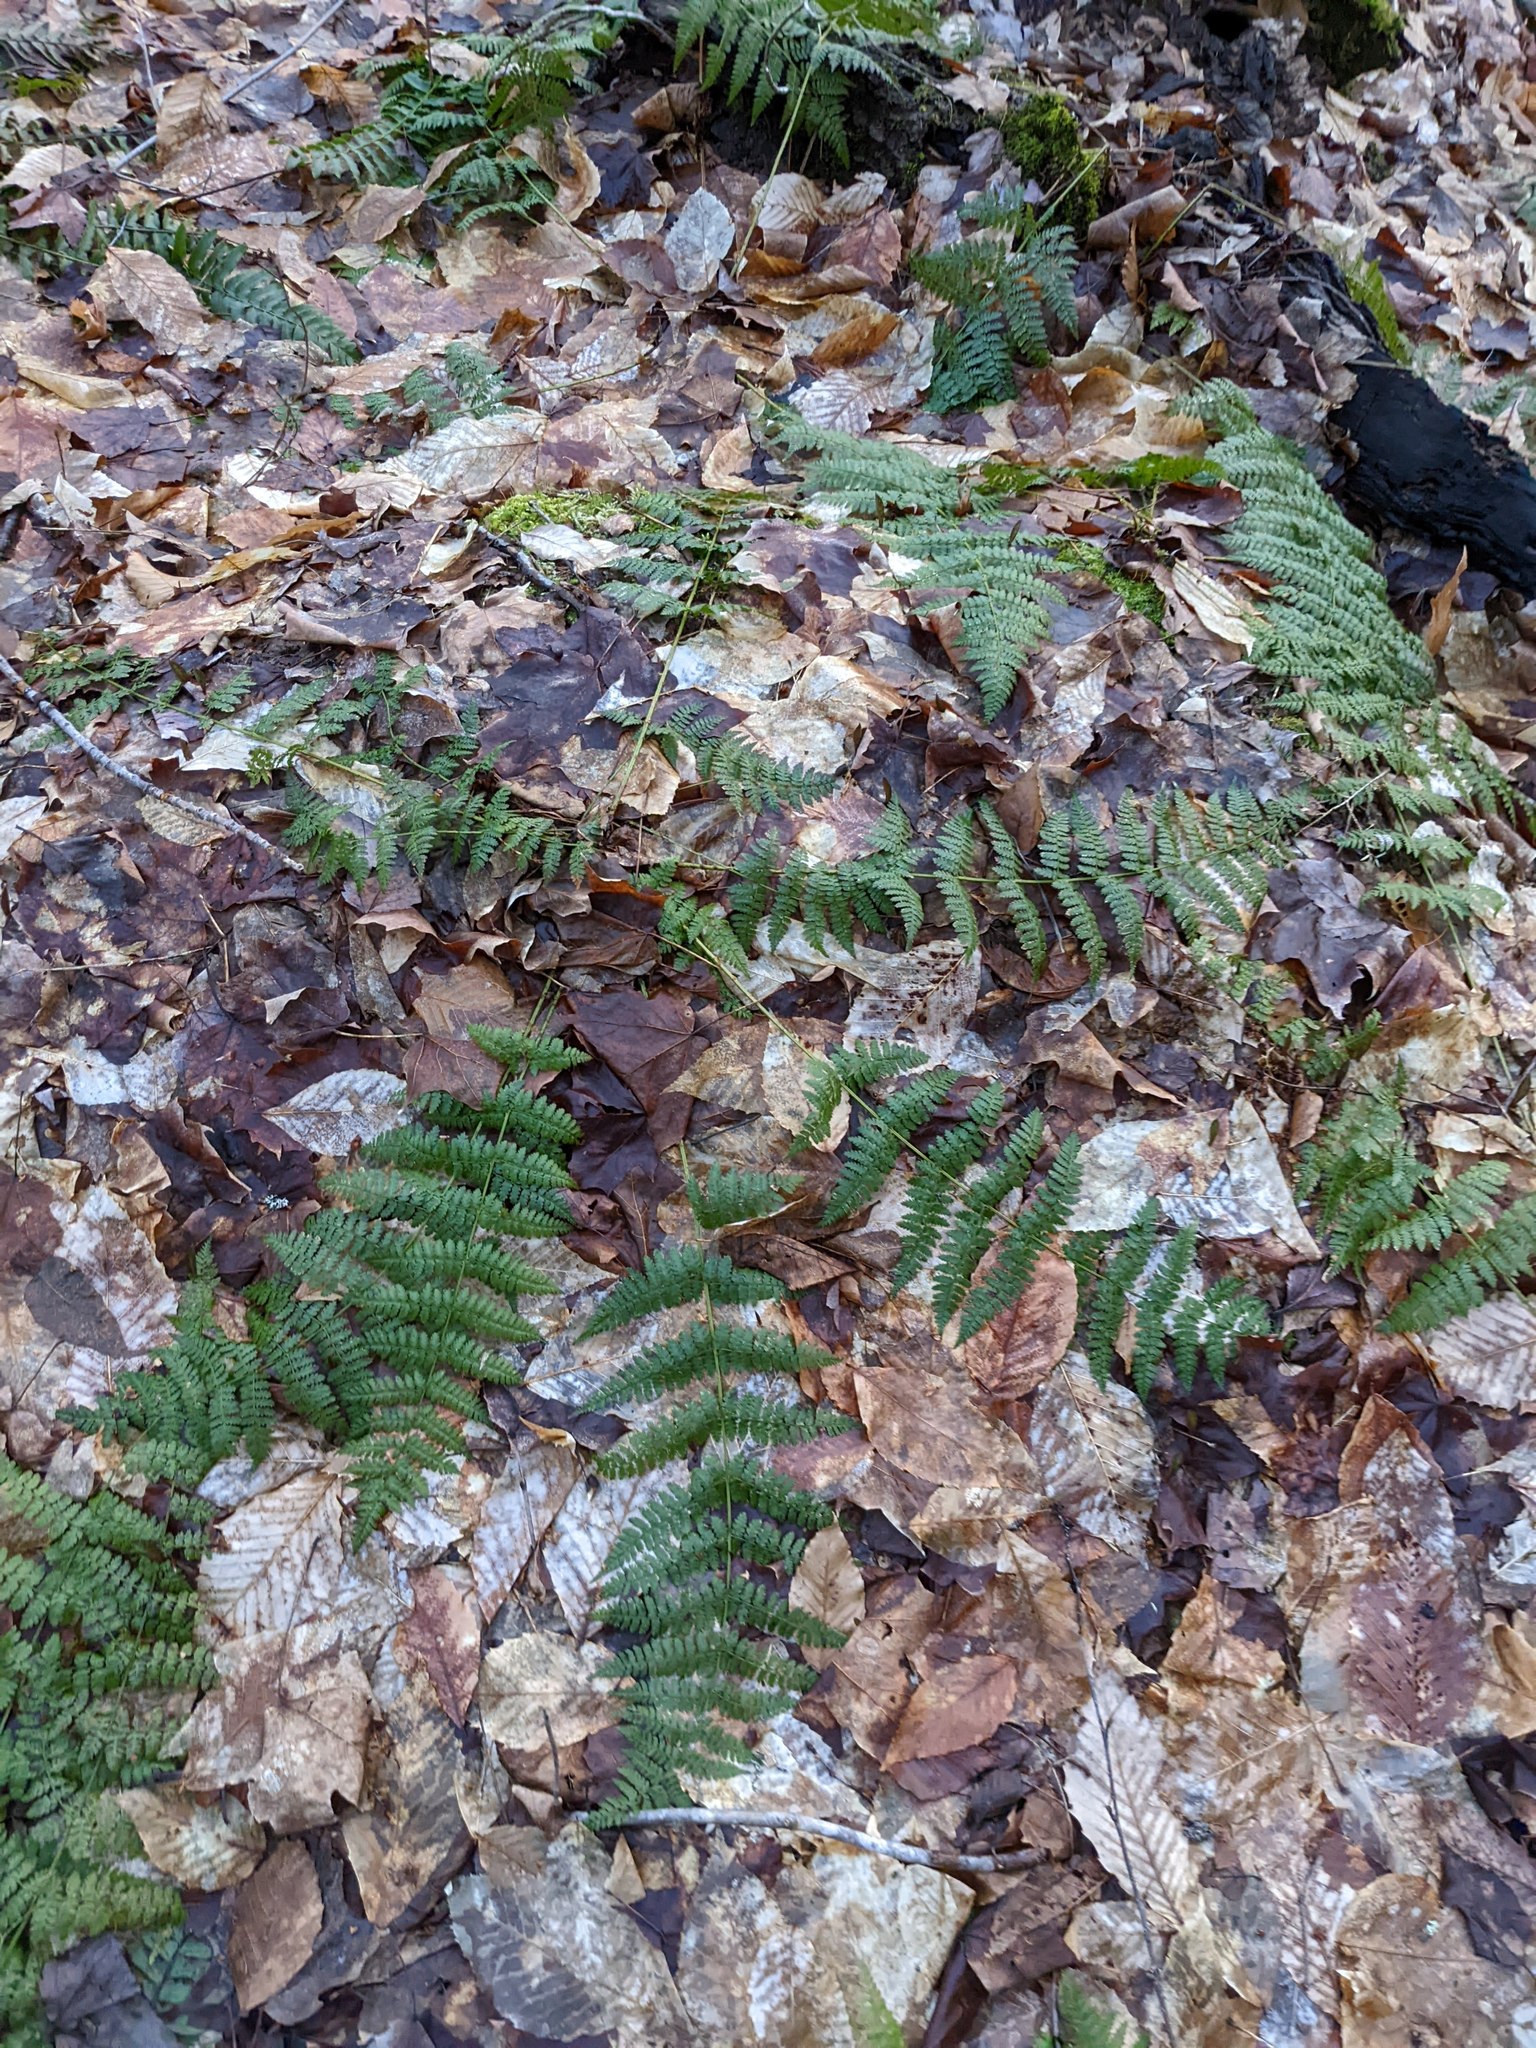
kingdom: Plantae
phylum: Tracheophyta
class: Polypodiopsida
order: Polypodiales
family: Dryopteridaceae
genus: Dryopteris
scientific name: Dryopteris intermedia
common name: Evergreen wood fern
